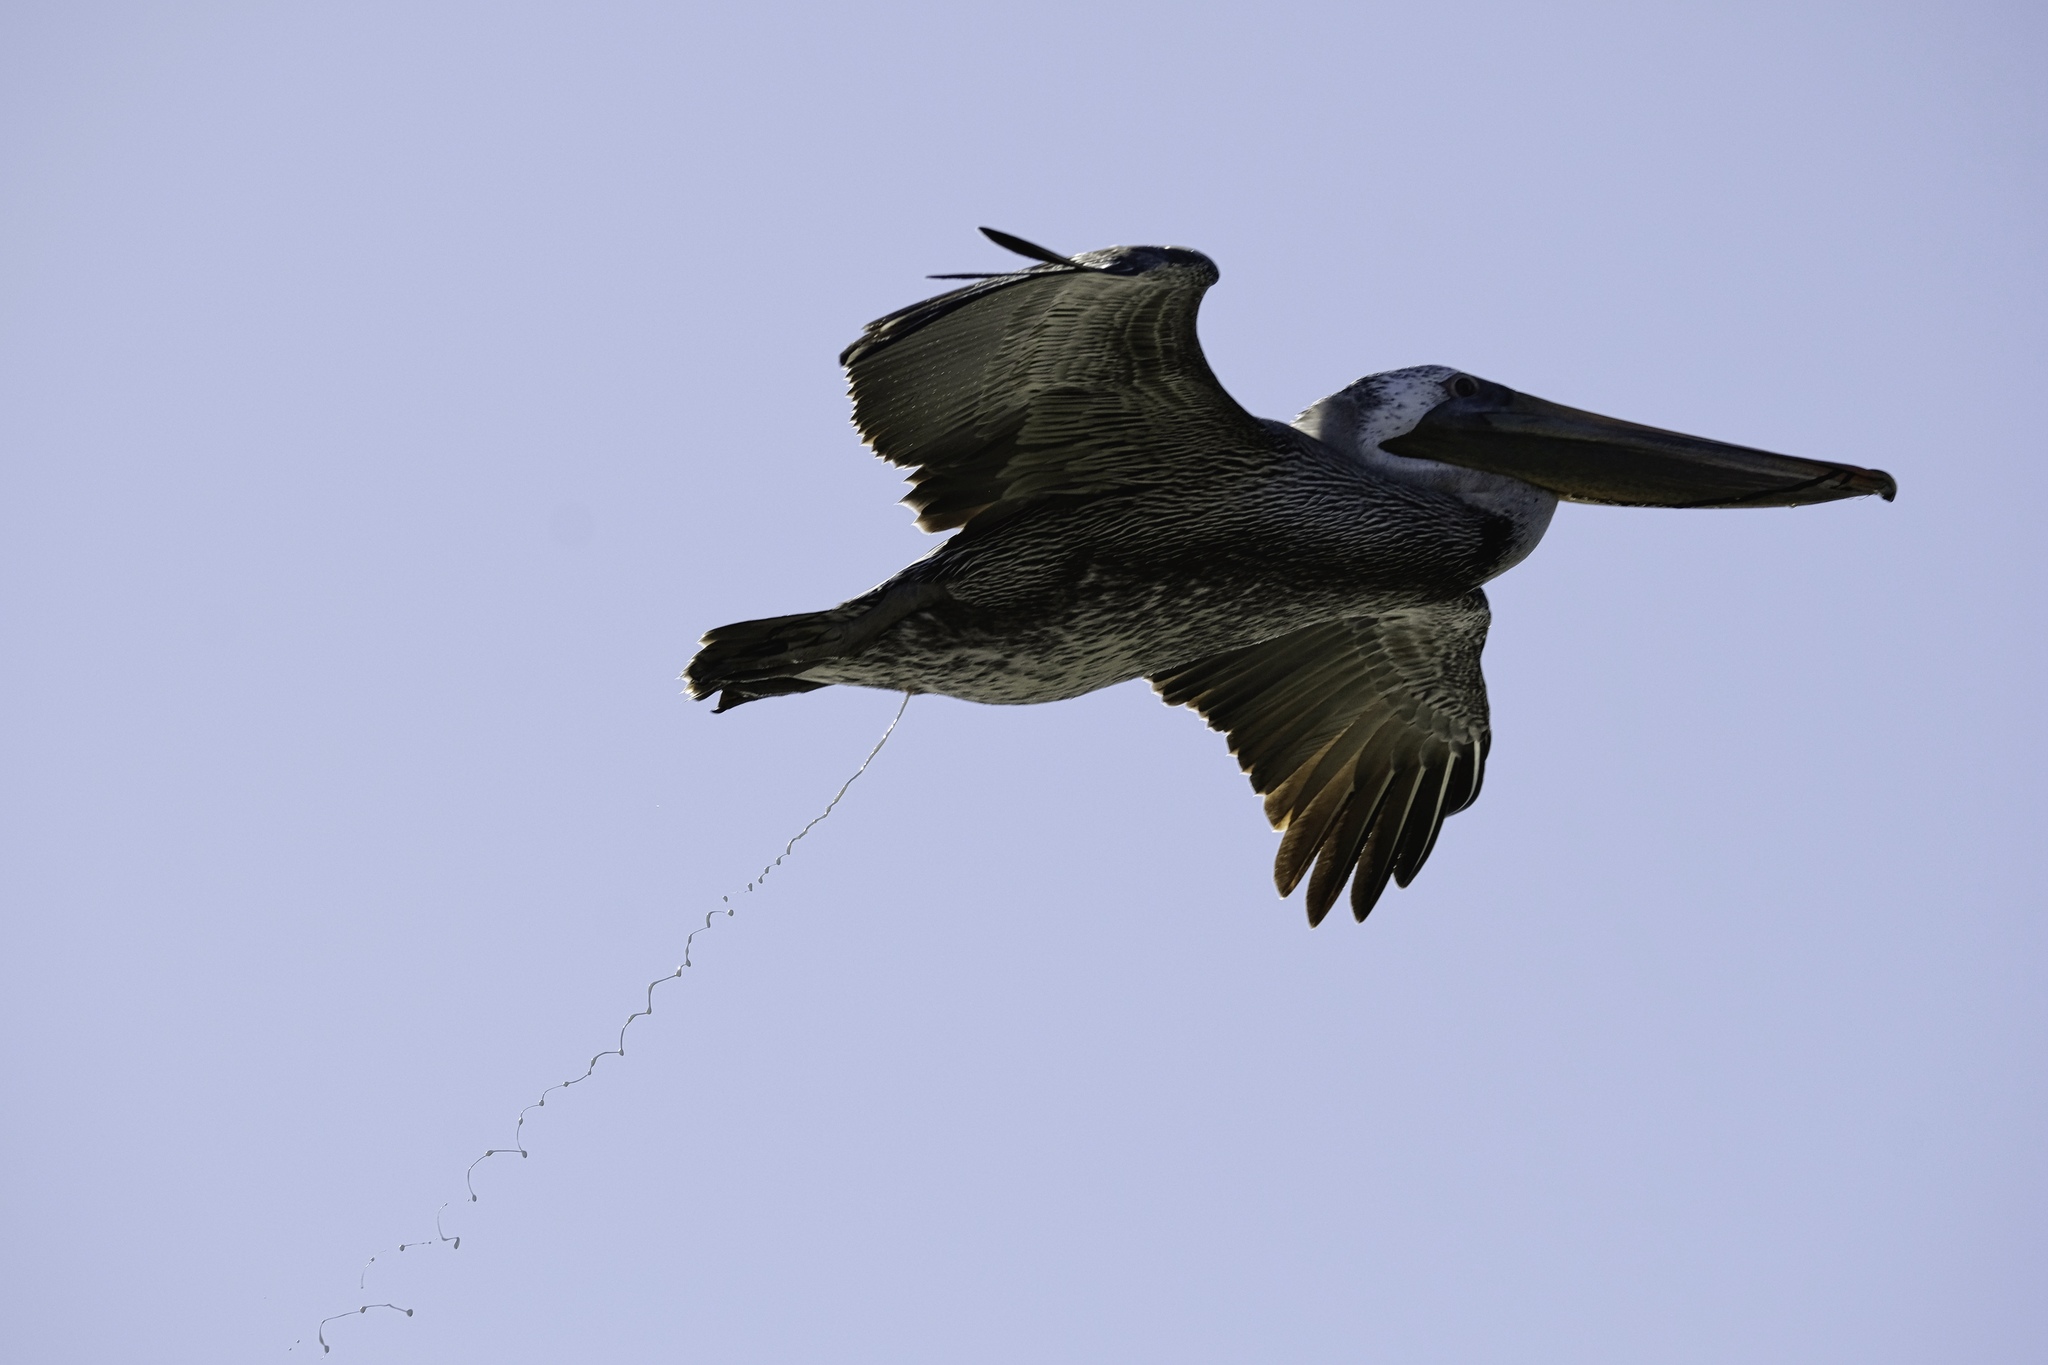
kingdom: Animalia
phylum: Chordata
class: Aves
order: Pelecaniformes
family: Pelecanidae
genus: Pelecanus
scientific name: Pelecanus occidentalis
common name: Brown pelican
